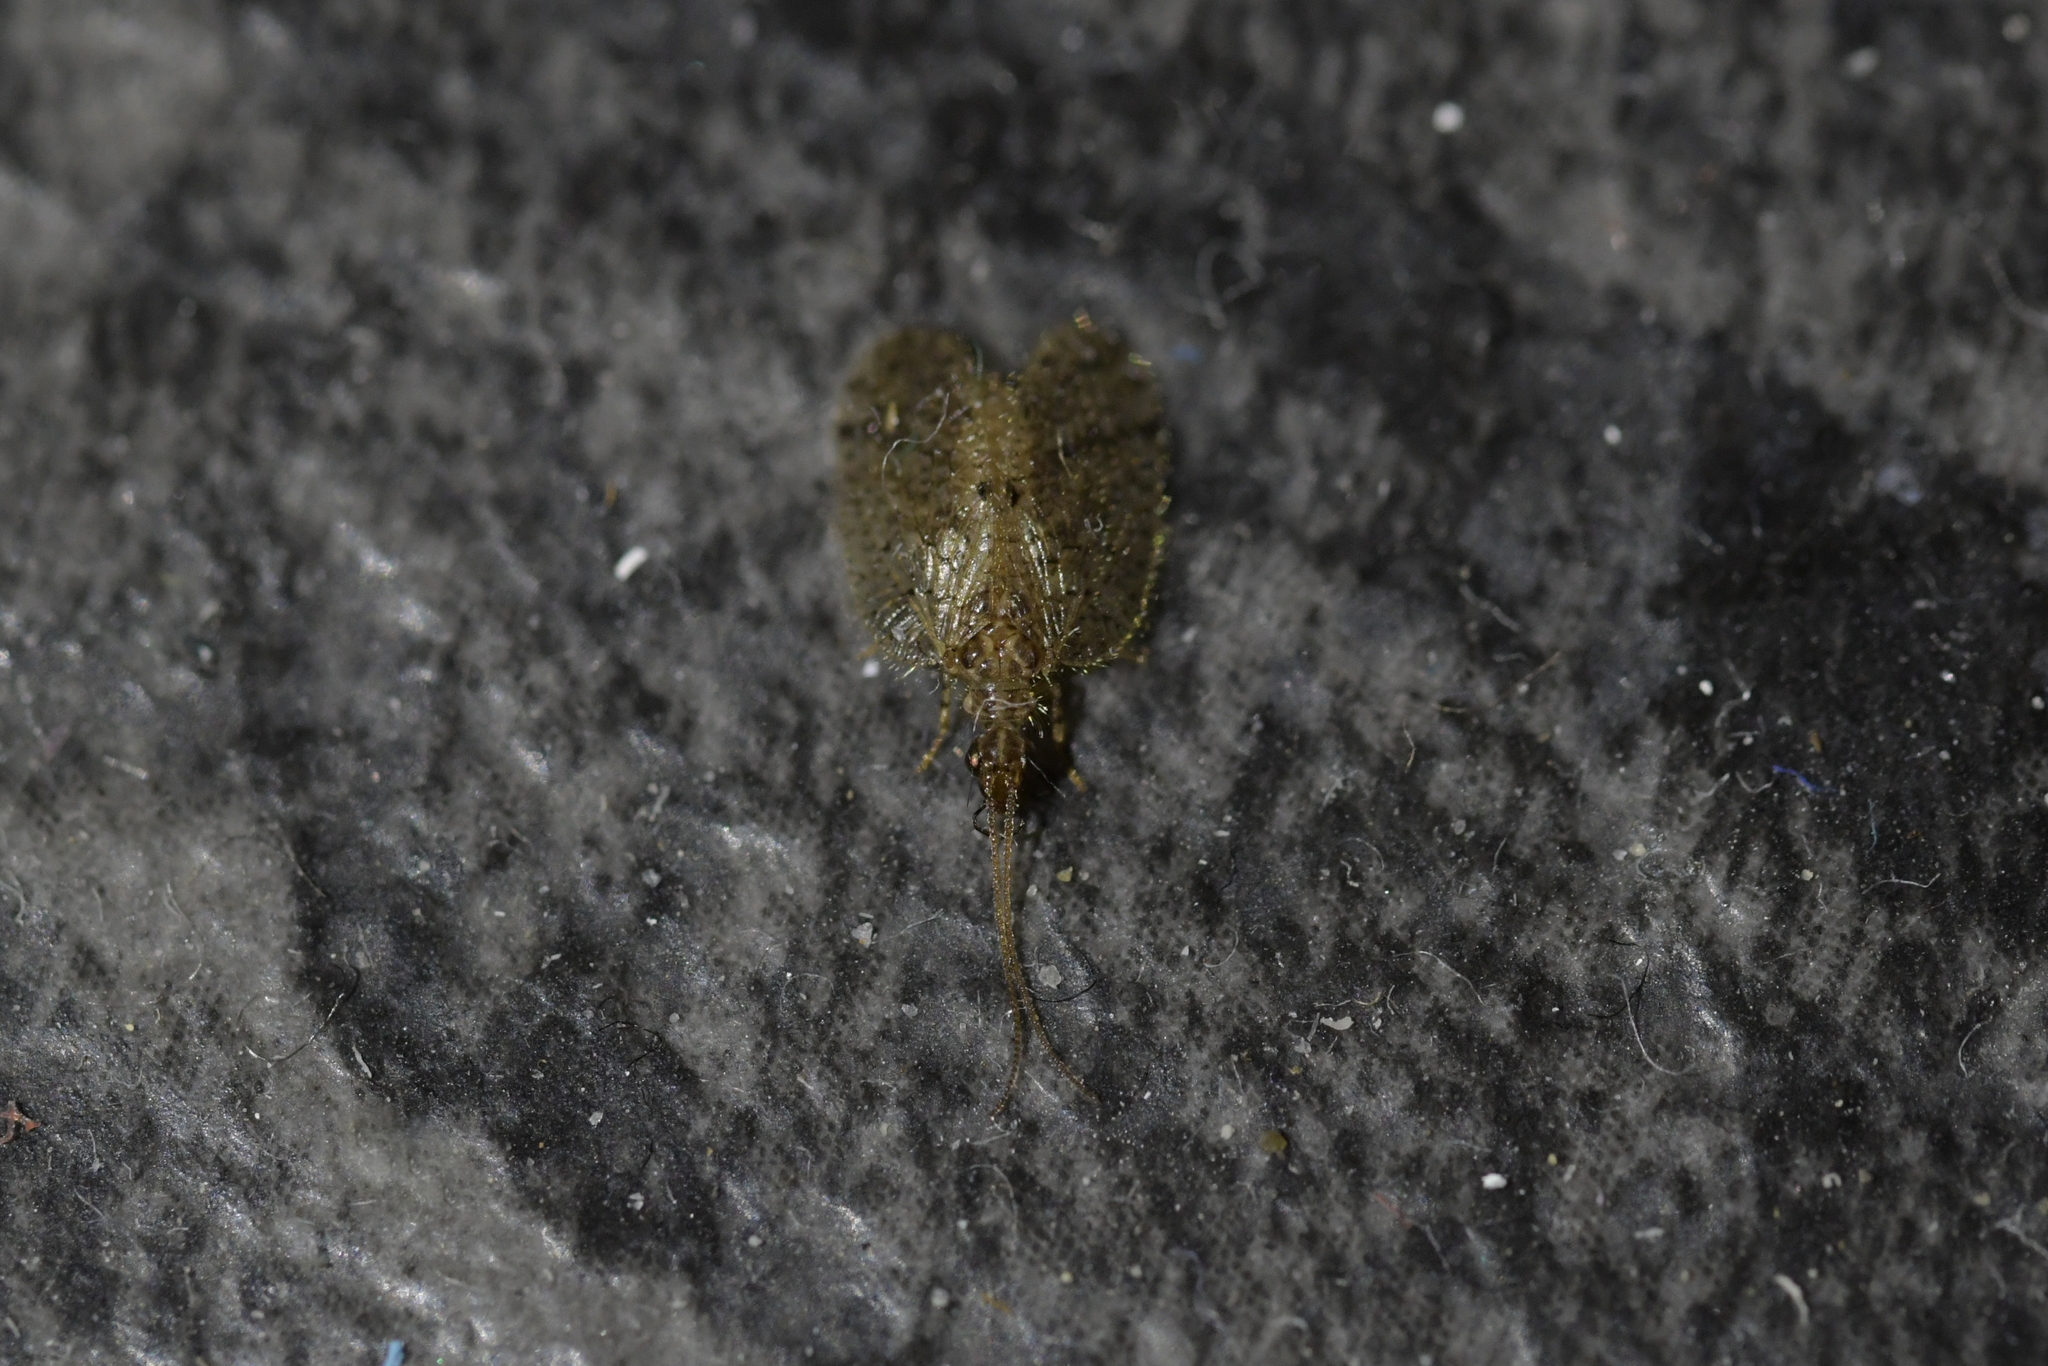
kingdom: Animalia
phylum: Arthropoda
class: Insecta
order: Neuroptera
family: Hemerobiidae
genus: Psectra
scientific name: Psectra nakaharai
